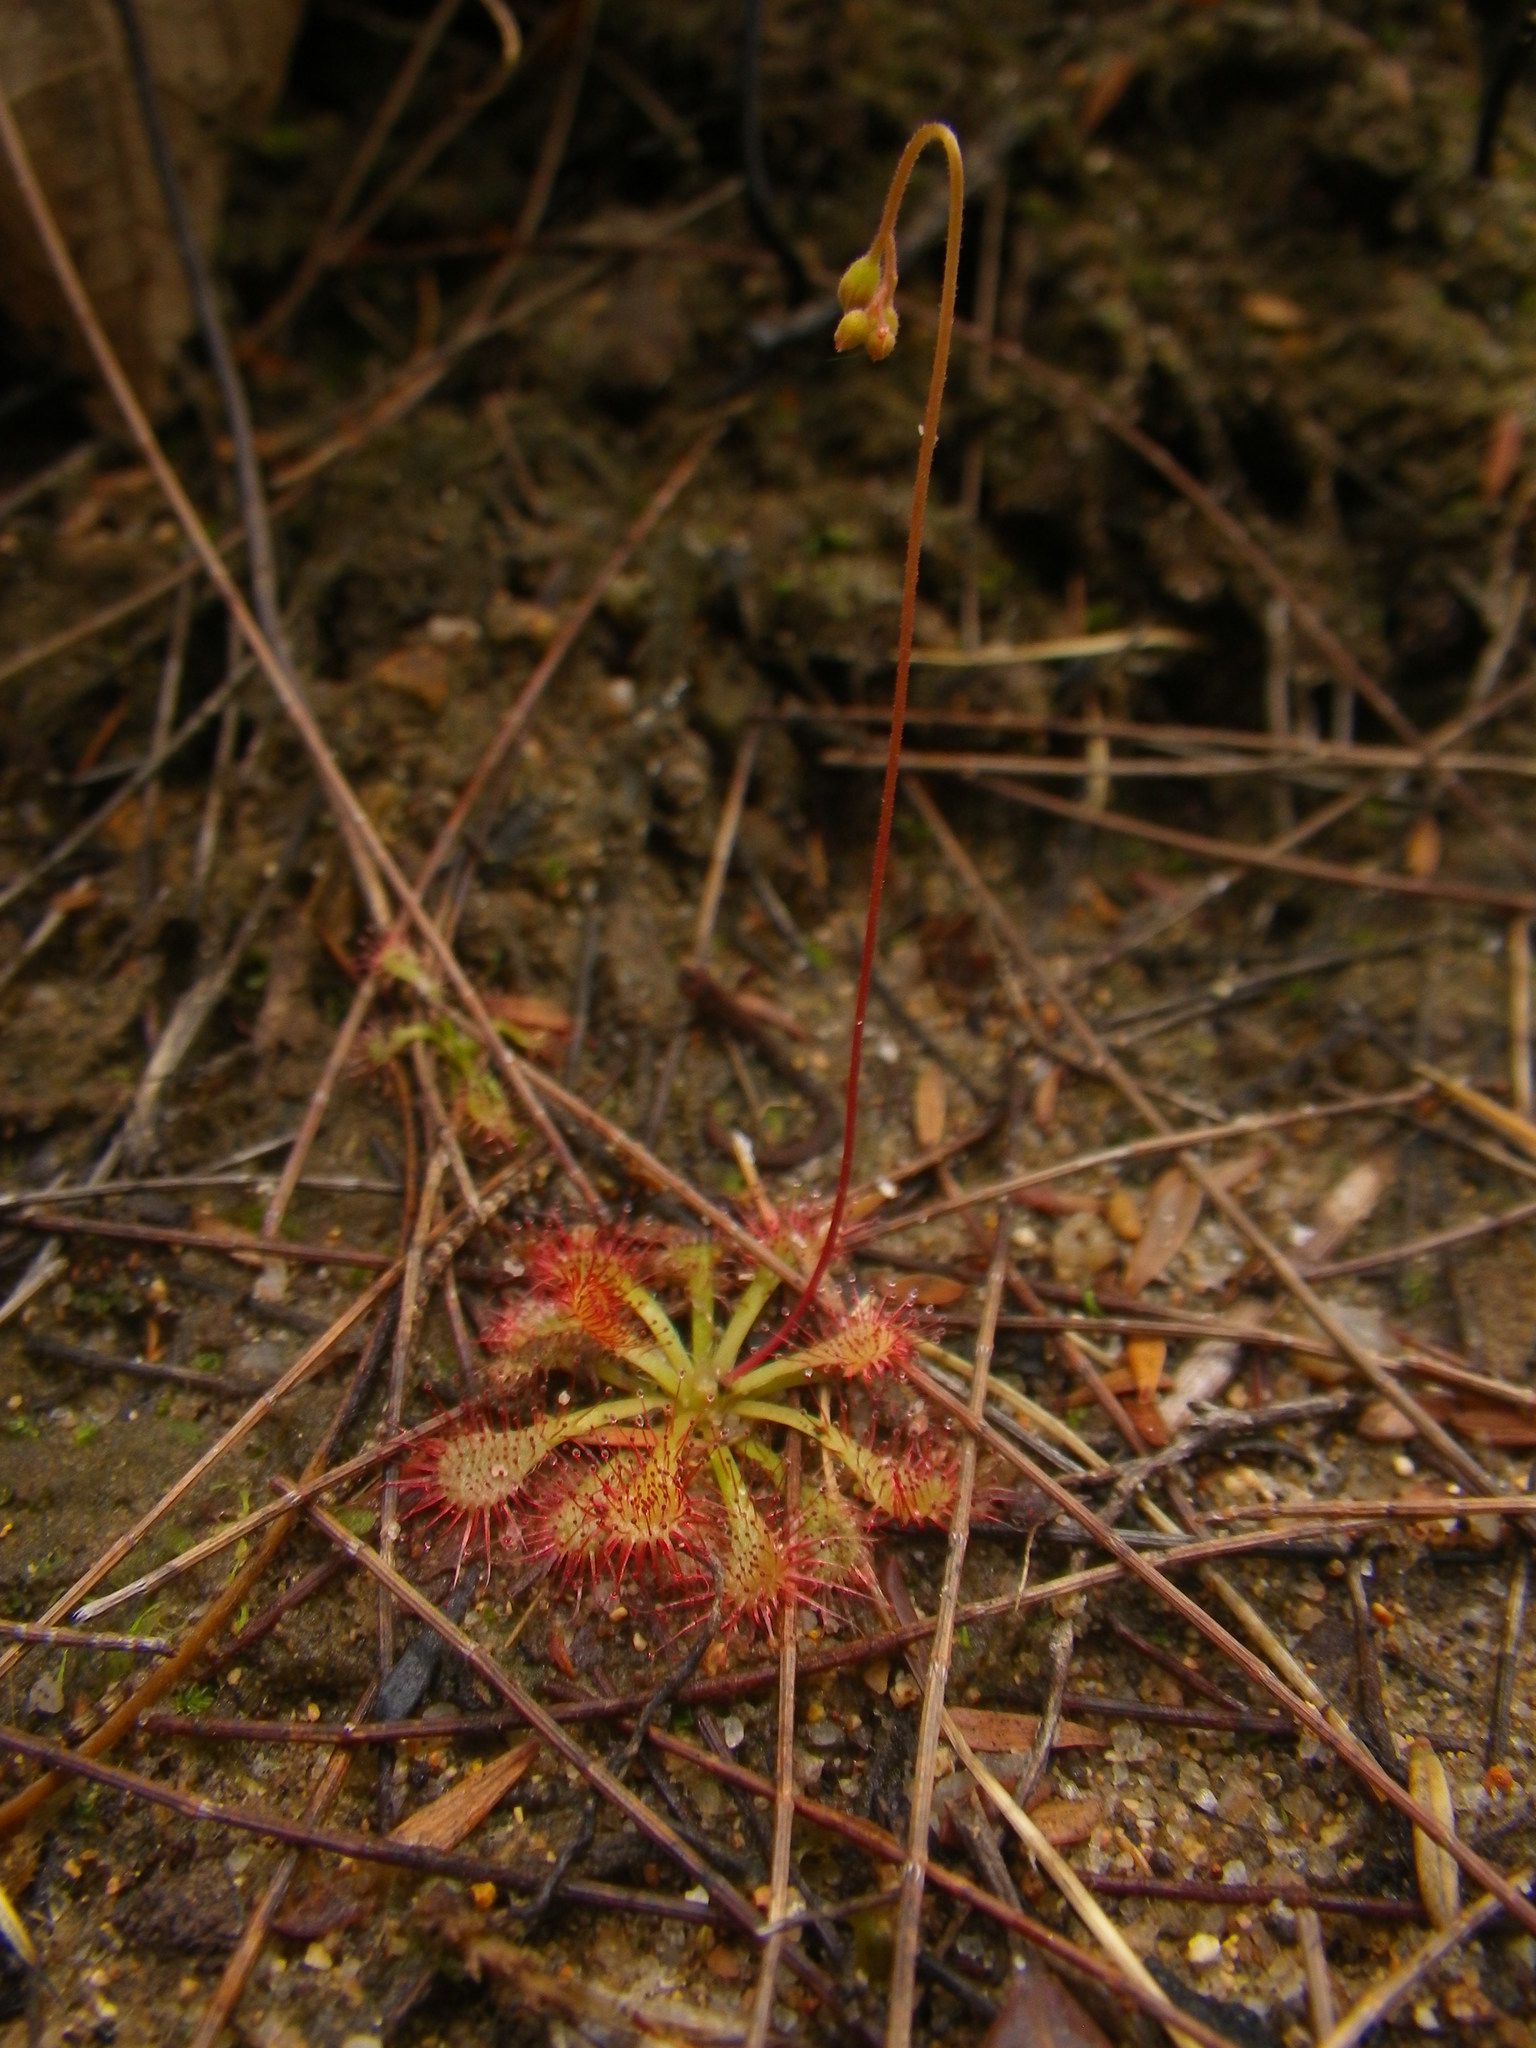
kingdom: Plantae
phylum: Tracheophyta
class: Magnoliopsida
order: Caryophyllales
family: Droseraceae
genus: Drosera
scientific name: Drosera spatulata
